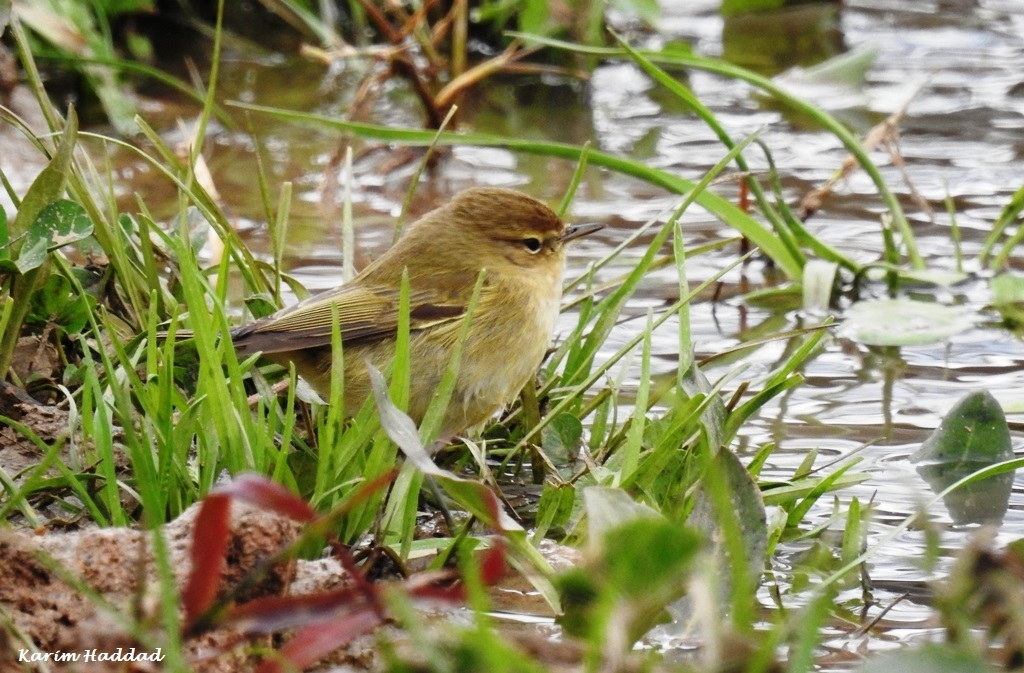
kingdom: Animalia
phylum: Chordata
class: Aves
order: Passeriformes
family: Phylloscopidae
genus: Phylloscopus
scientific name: Phylloscopus collybita
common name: Common chiffchaff
